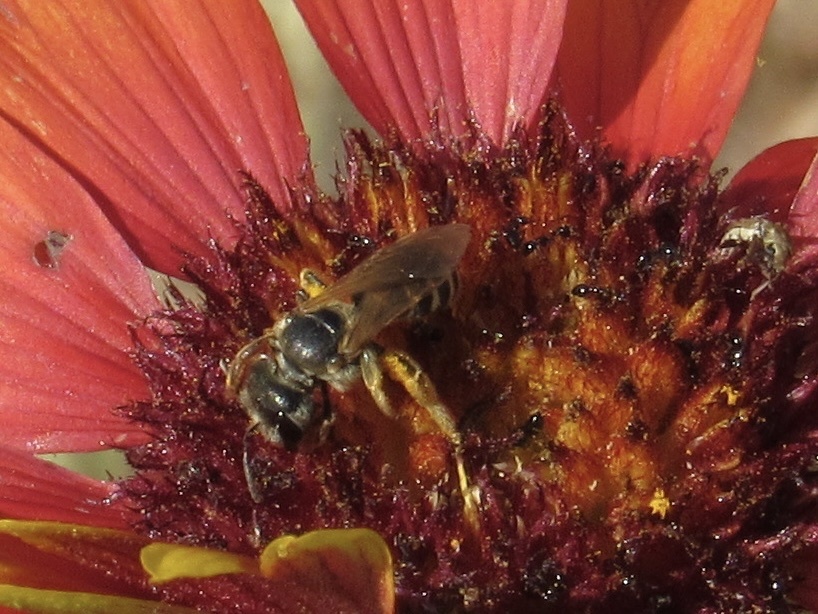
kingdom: Animalia
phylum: Arthropoda
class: Insecta
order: Hymenoptera
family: Halictidae
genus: Halictus
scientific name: Halictus ligatus
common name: Ligated furrow bee
